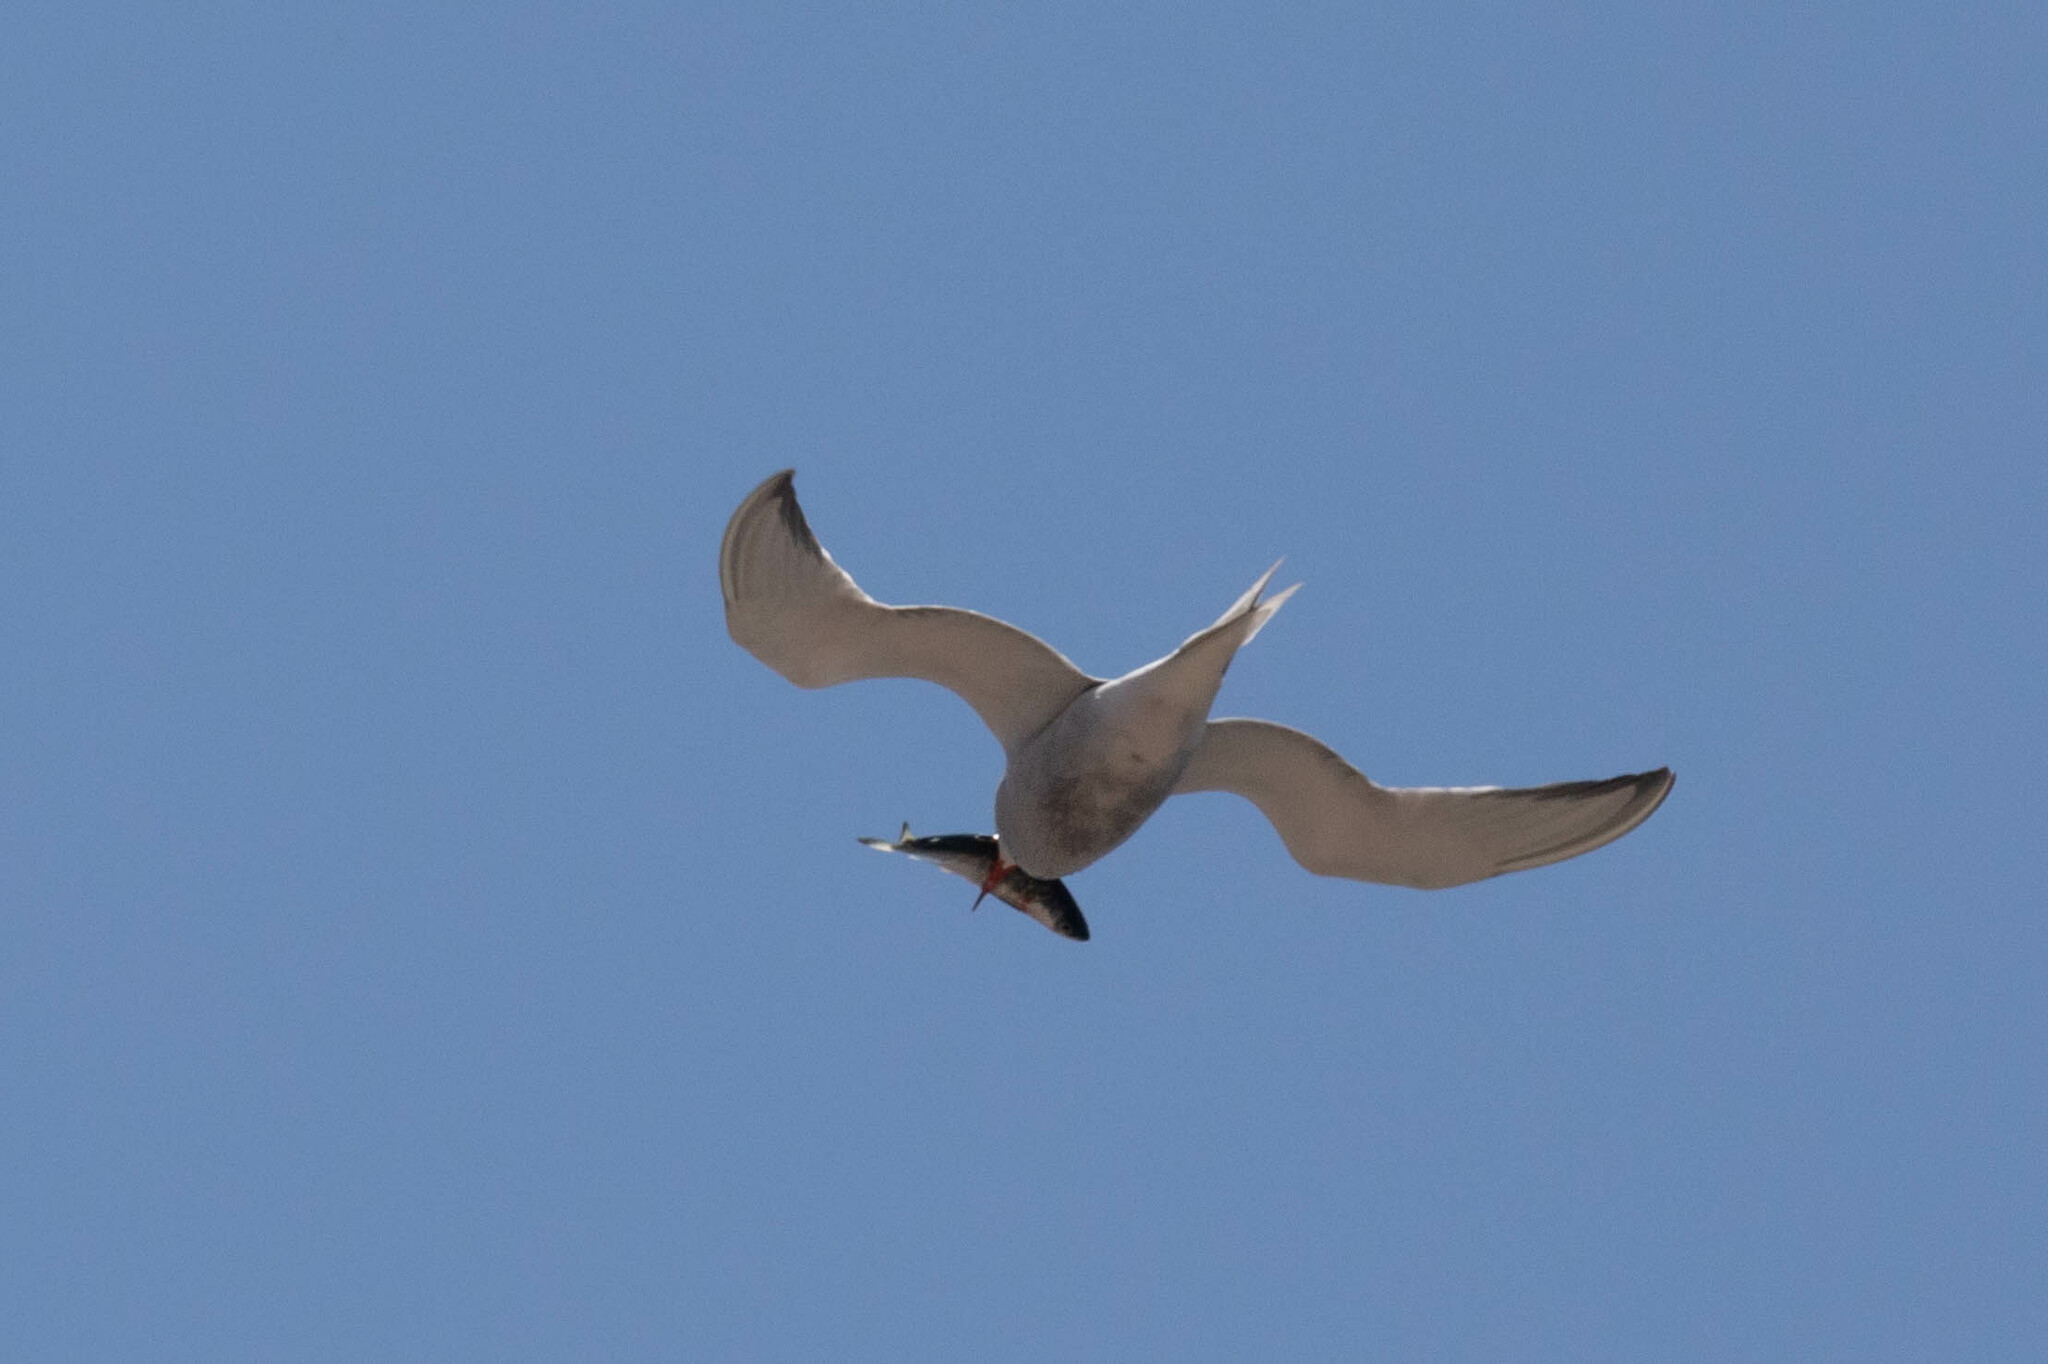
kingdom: Animalia
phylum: Chordata
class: Aves
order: Charadriiformes
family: Laridae
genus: Sterna
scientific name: Sterna hirundo
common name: Common tern
